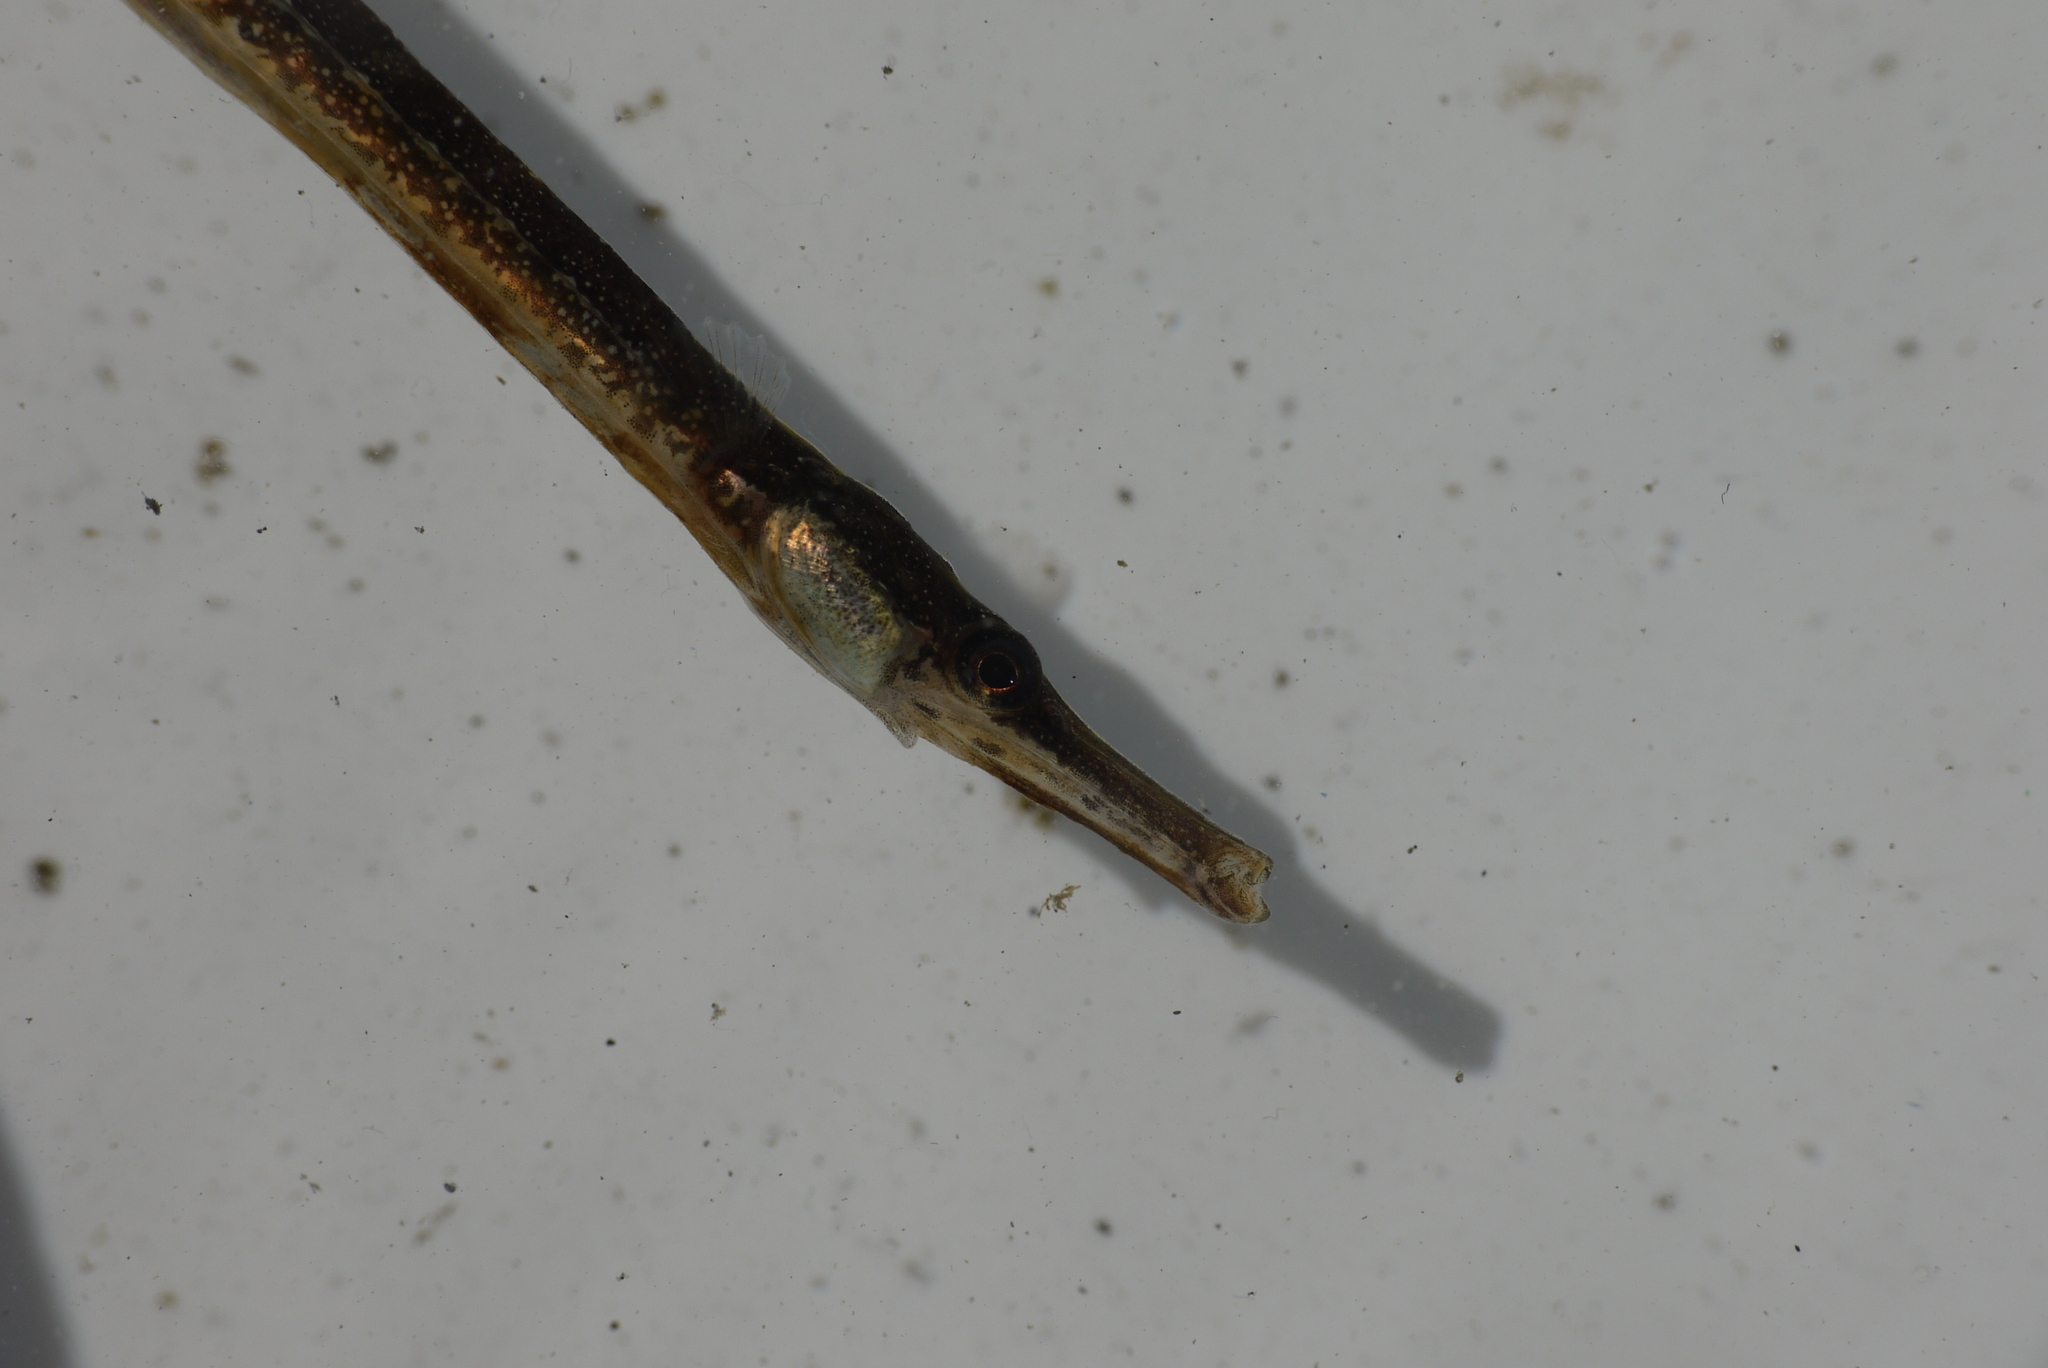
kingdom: Animalia
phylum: Chordata
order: Syngnathiformes
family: Syngnathidae
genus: Syngnathus
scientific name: Syngnathus rostellatus
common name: Nilsson's pipefish
